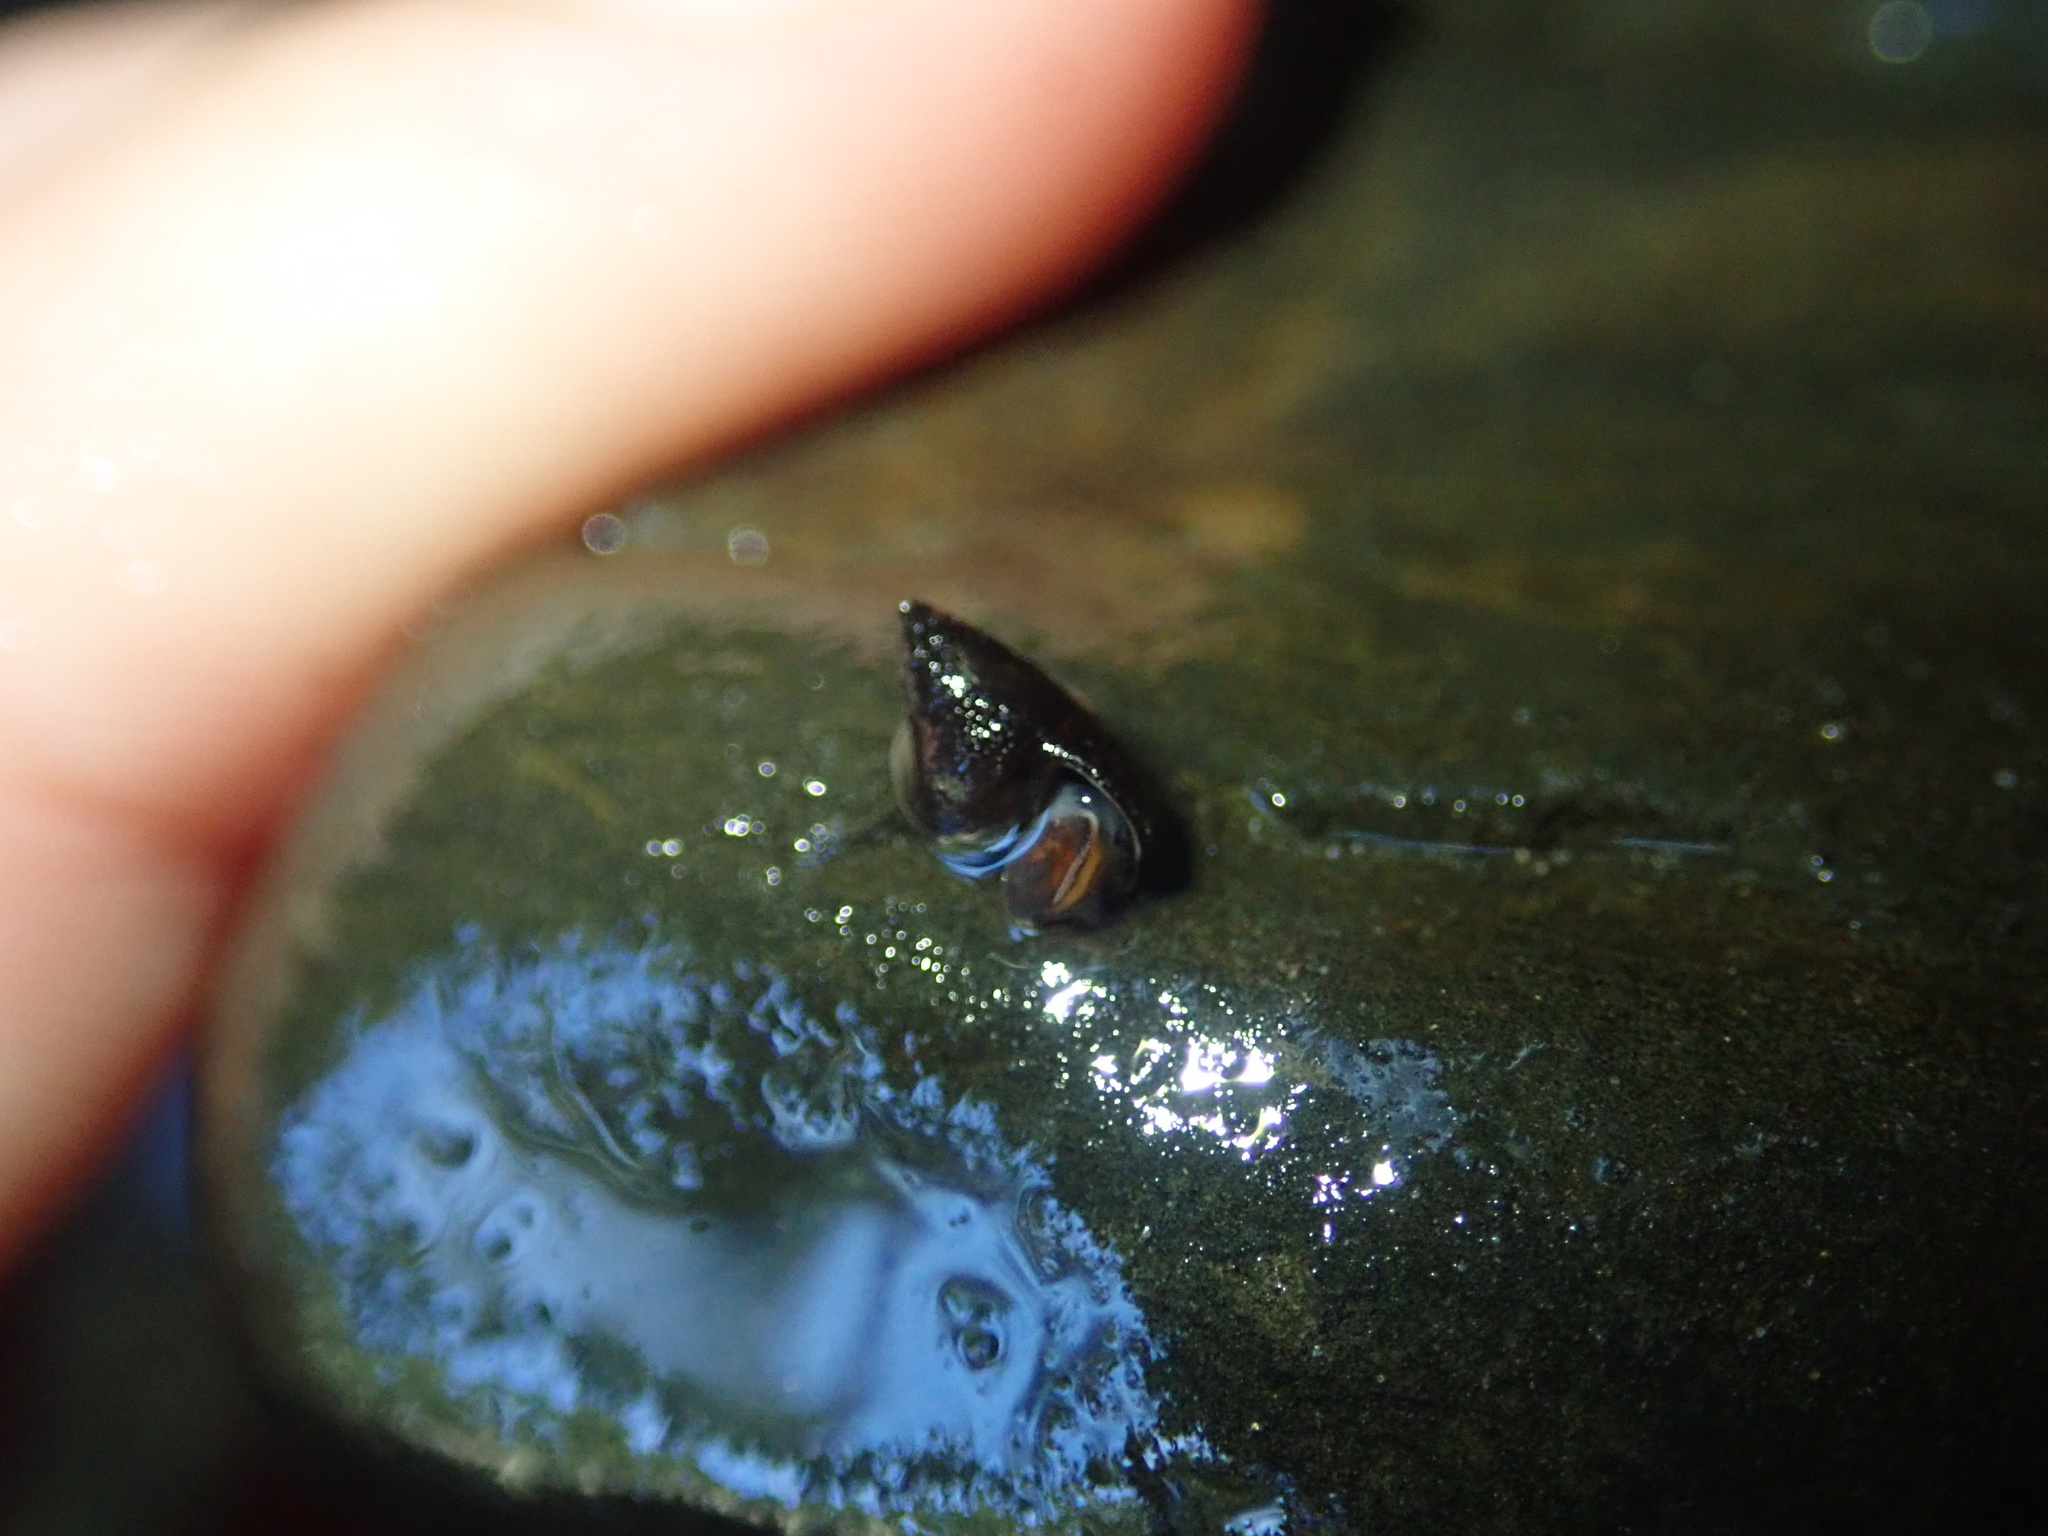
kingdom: Animalia
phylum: Mollusca
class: Gastropoda
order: Littorinimorpha
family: Tateidae
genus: Potamopyrgus
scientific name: Potamopyrgus antipodarum
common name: Jenkins' spire snail
